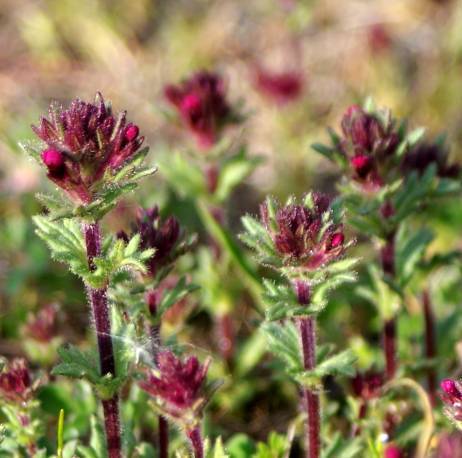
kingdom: Plantae
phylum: Tracheophyta
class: Magnoliopsida
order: Lamiales
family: Orobanchaceae
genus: Parentucellia
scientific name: Parentucellia latifolia
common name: Broadleaf glandweed
